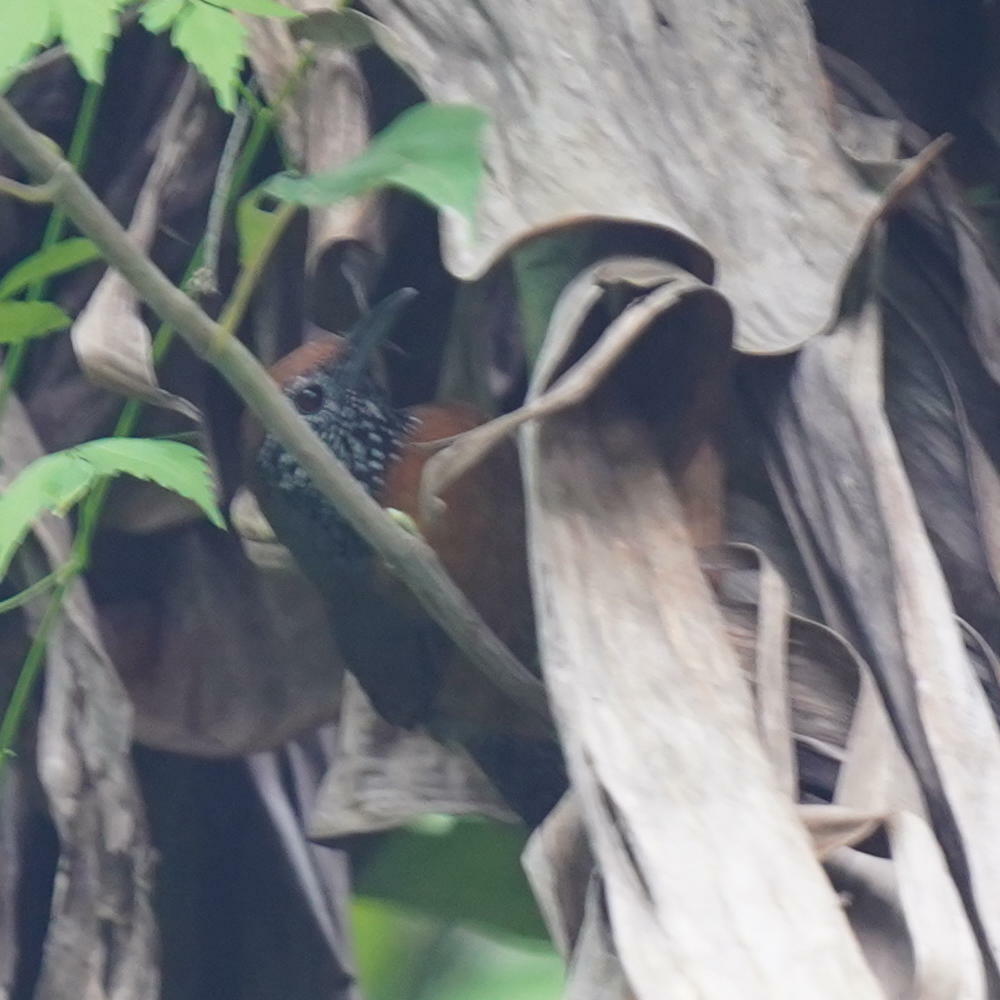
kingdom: Animalia
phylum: Chordata
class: Aves
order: Passeriformes
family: Troglodytidae
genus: Pheugopedius
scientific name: Pheugopedius rutilus
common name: Rufous-breasted wren
